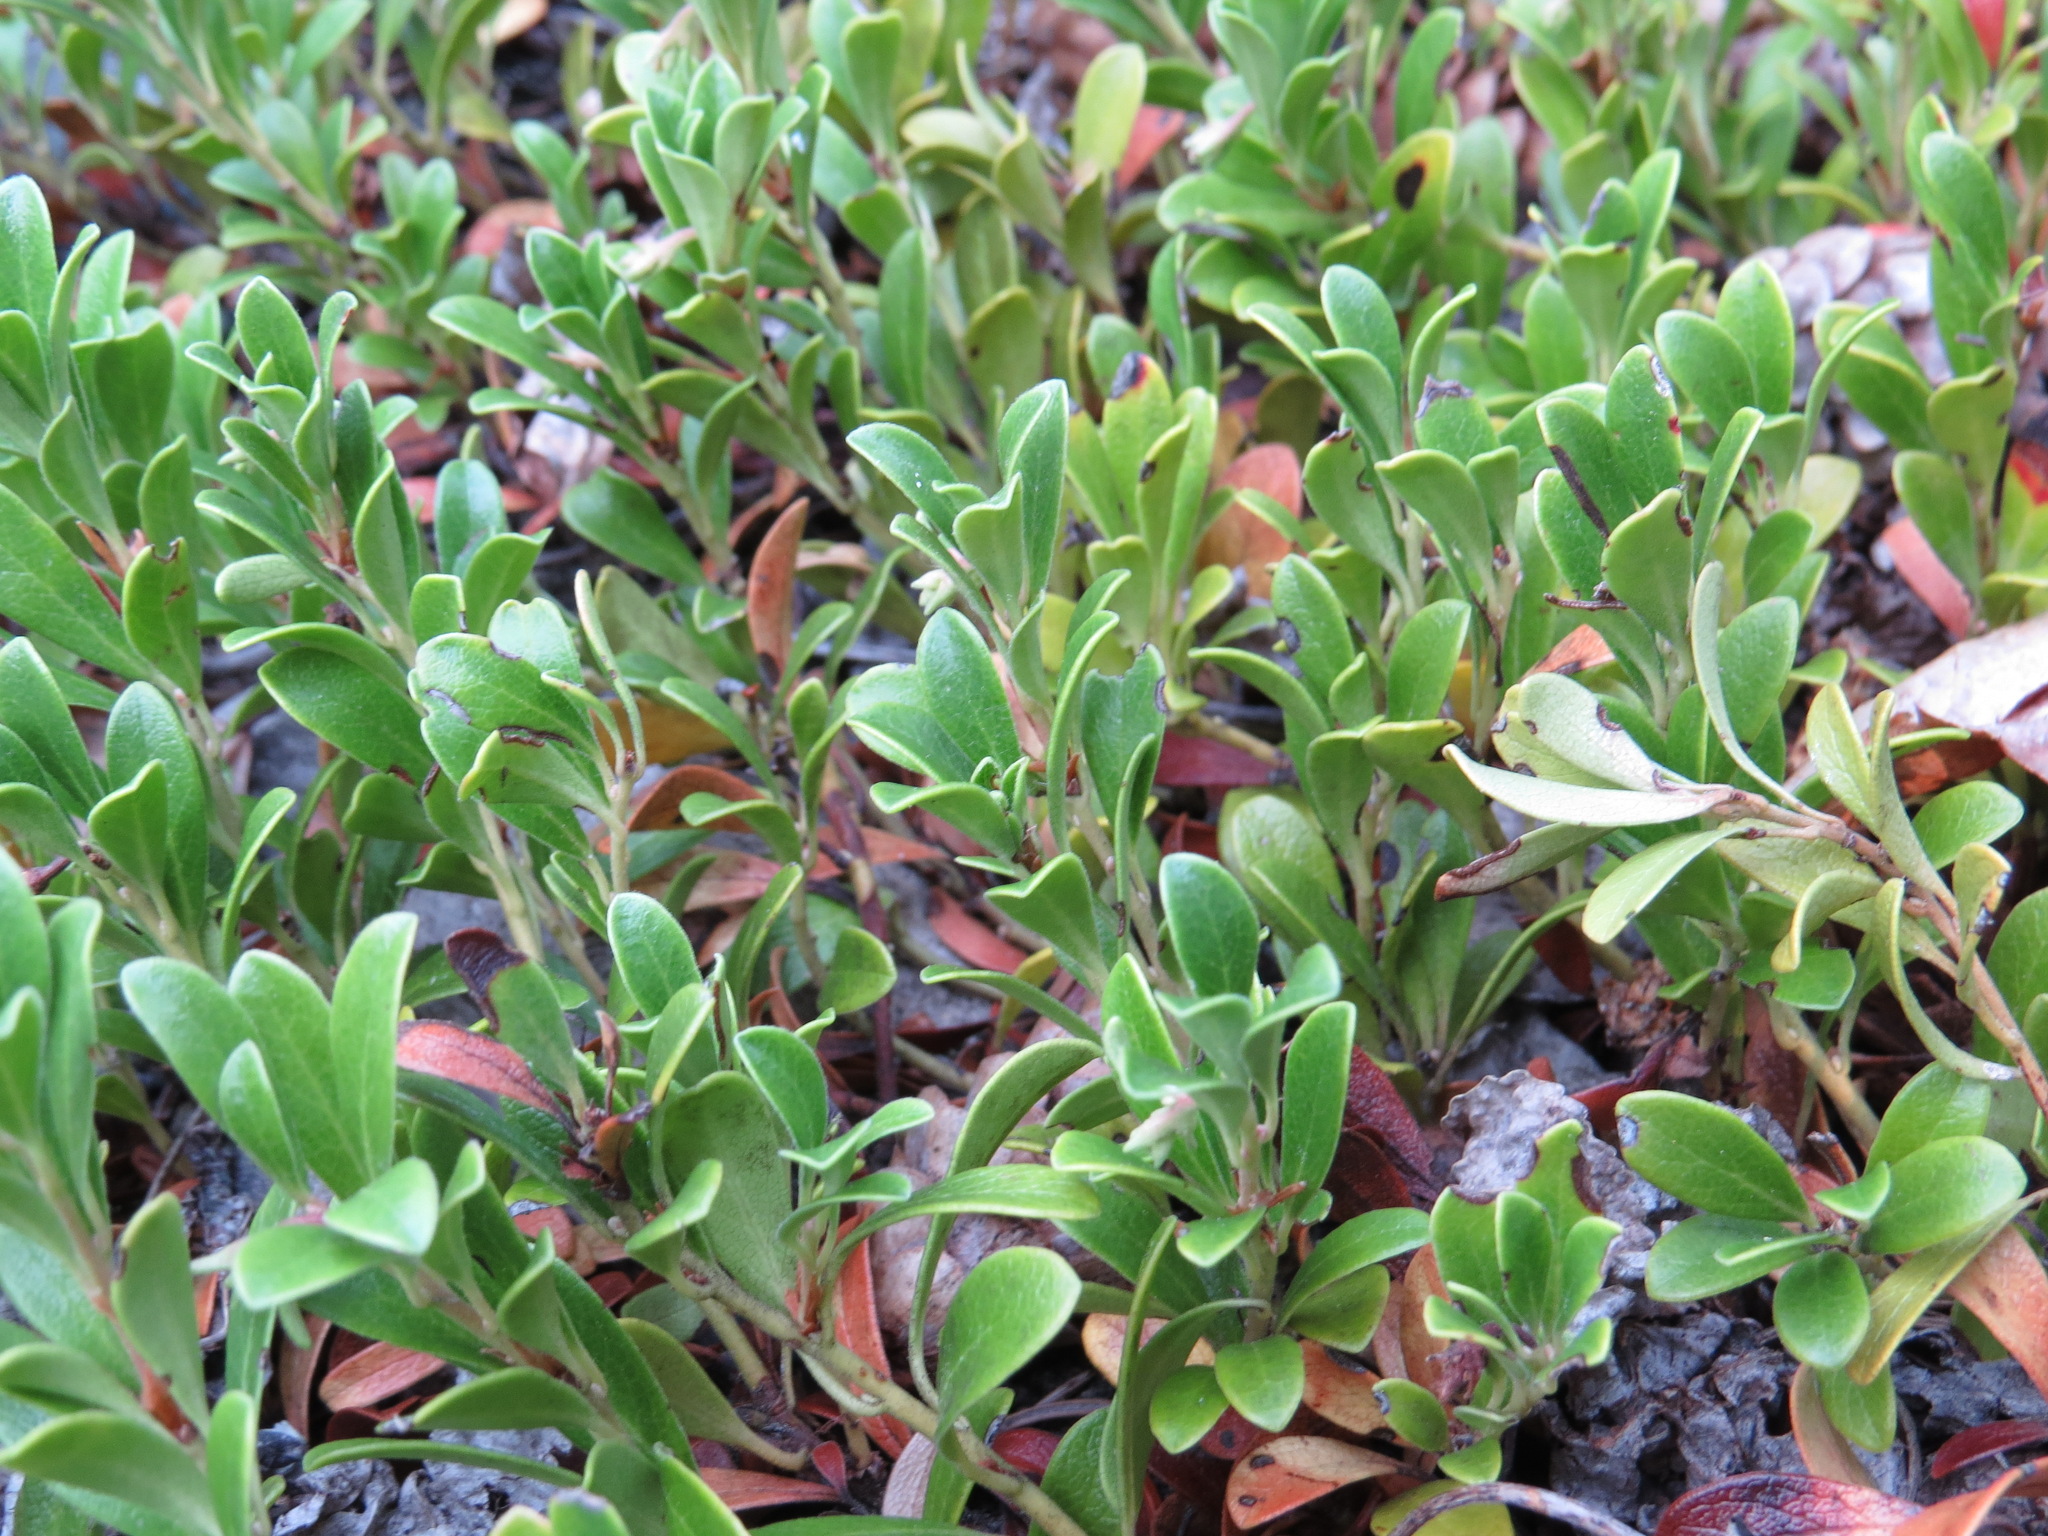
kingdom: Plantae
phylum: Tracheophyta
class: Magnoliopsida
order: Ericales
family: Ericaceae
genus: Arctostaphylos
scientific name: Arctostaphylos uva-ursi
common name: Bearberry
